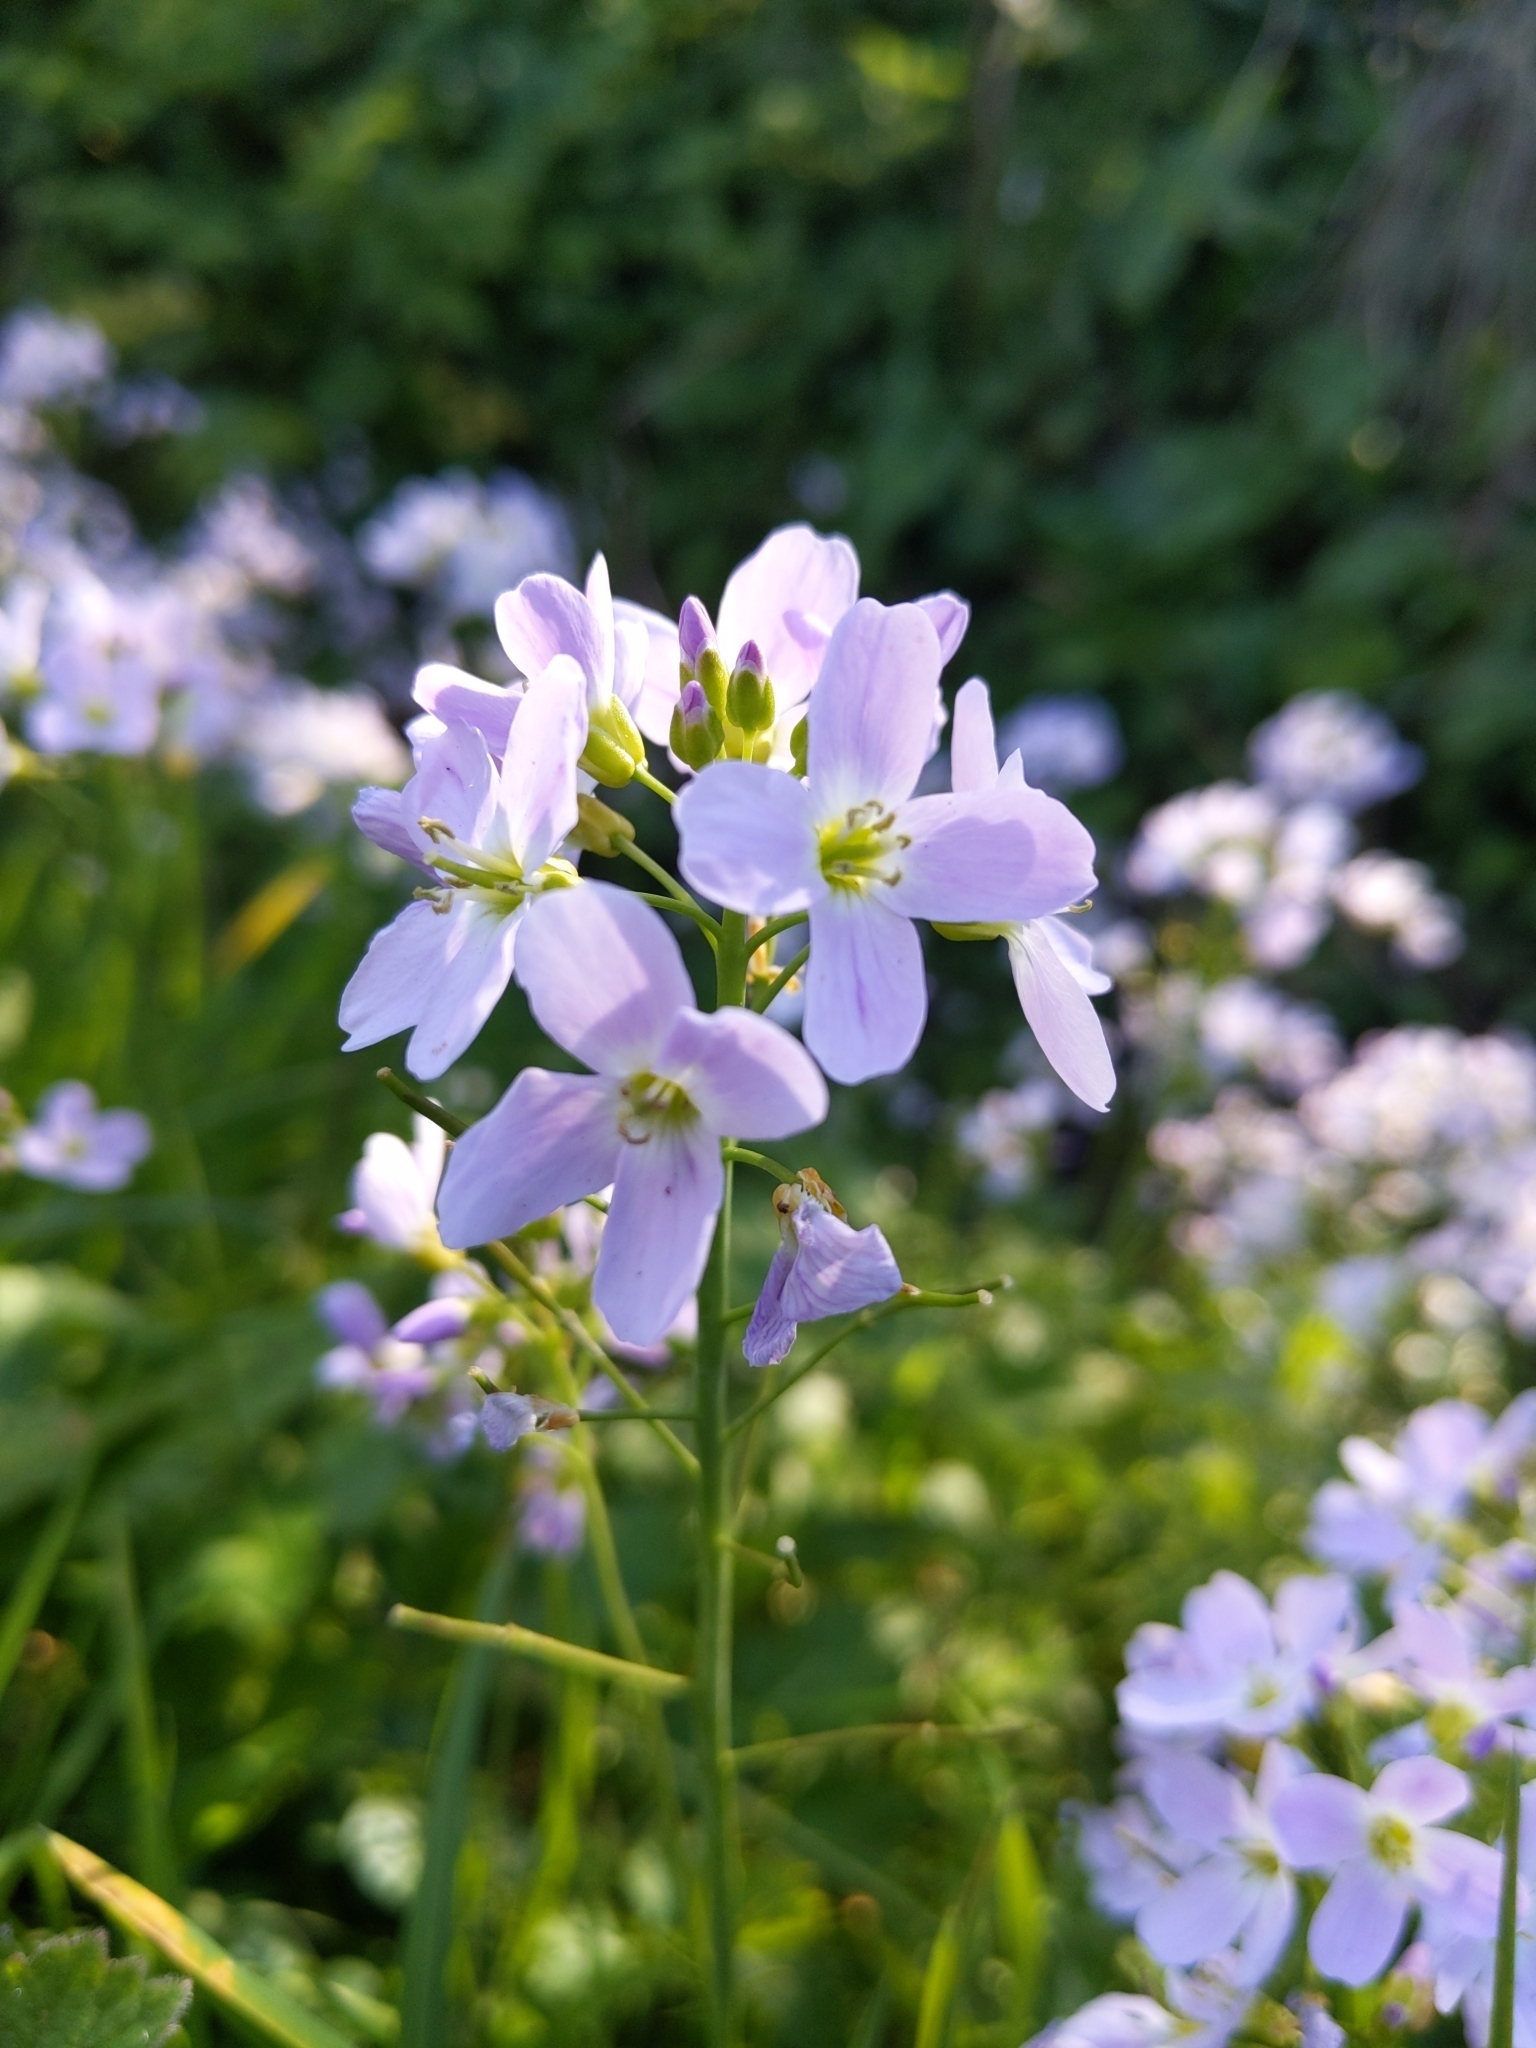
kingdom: Plantae
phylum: Tracheophyta
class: Magnoliopsida
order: Brassicales
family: Brassicaceae
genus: Cardamine
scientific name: Cardamine pratensis
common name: Cuckoo flower
